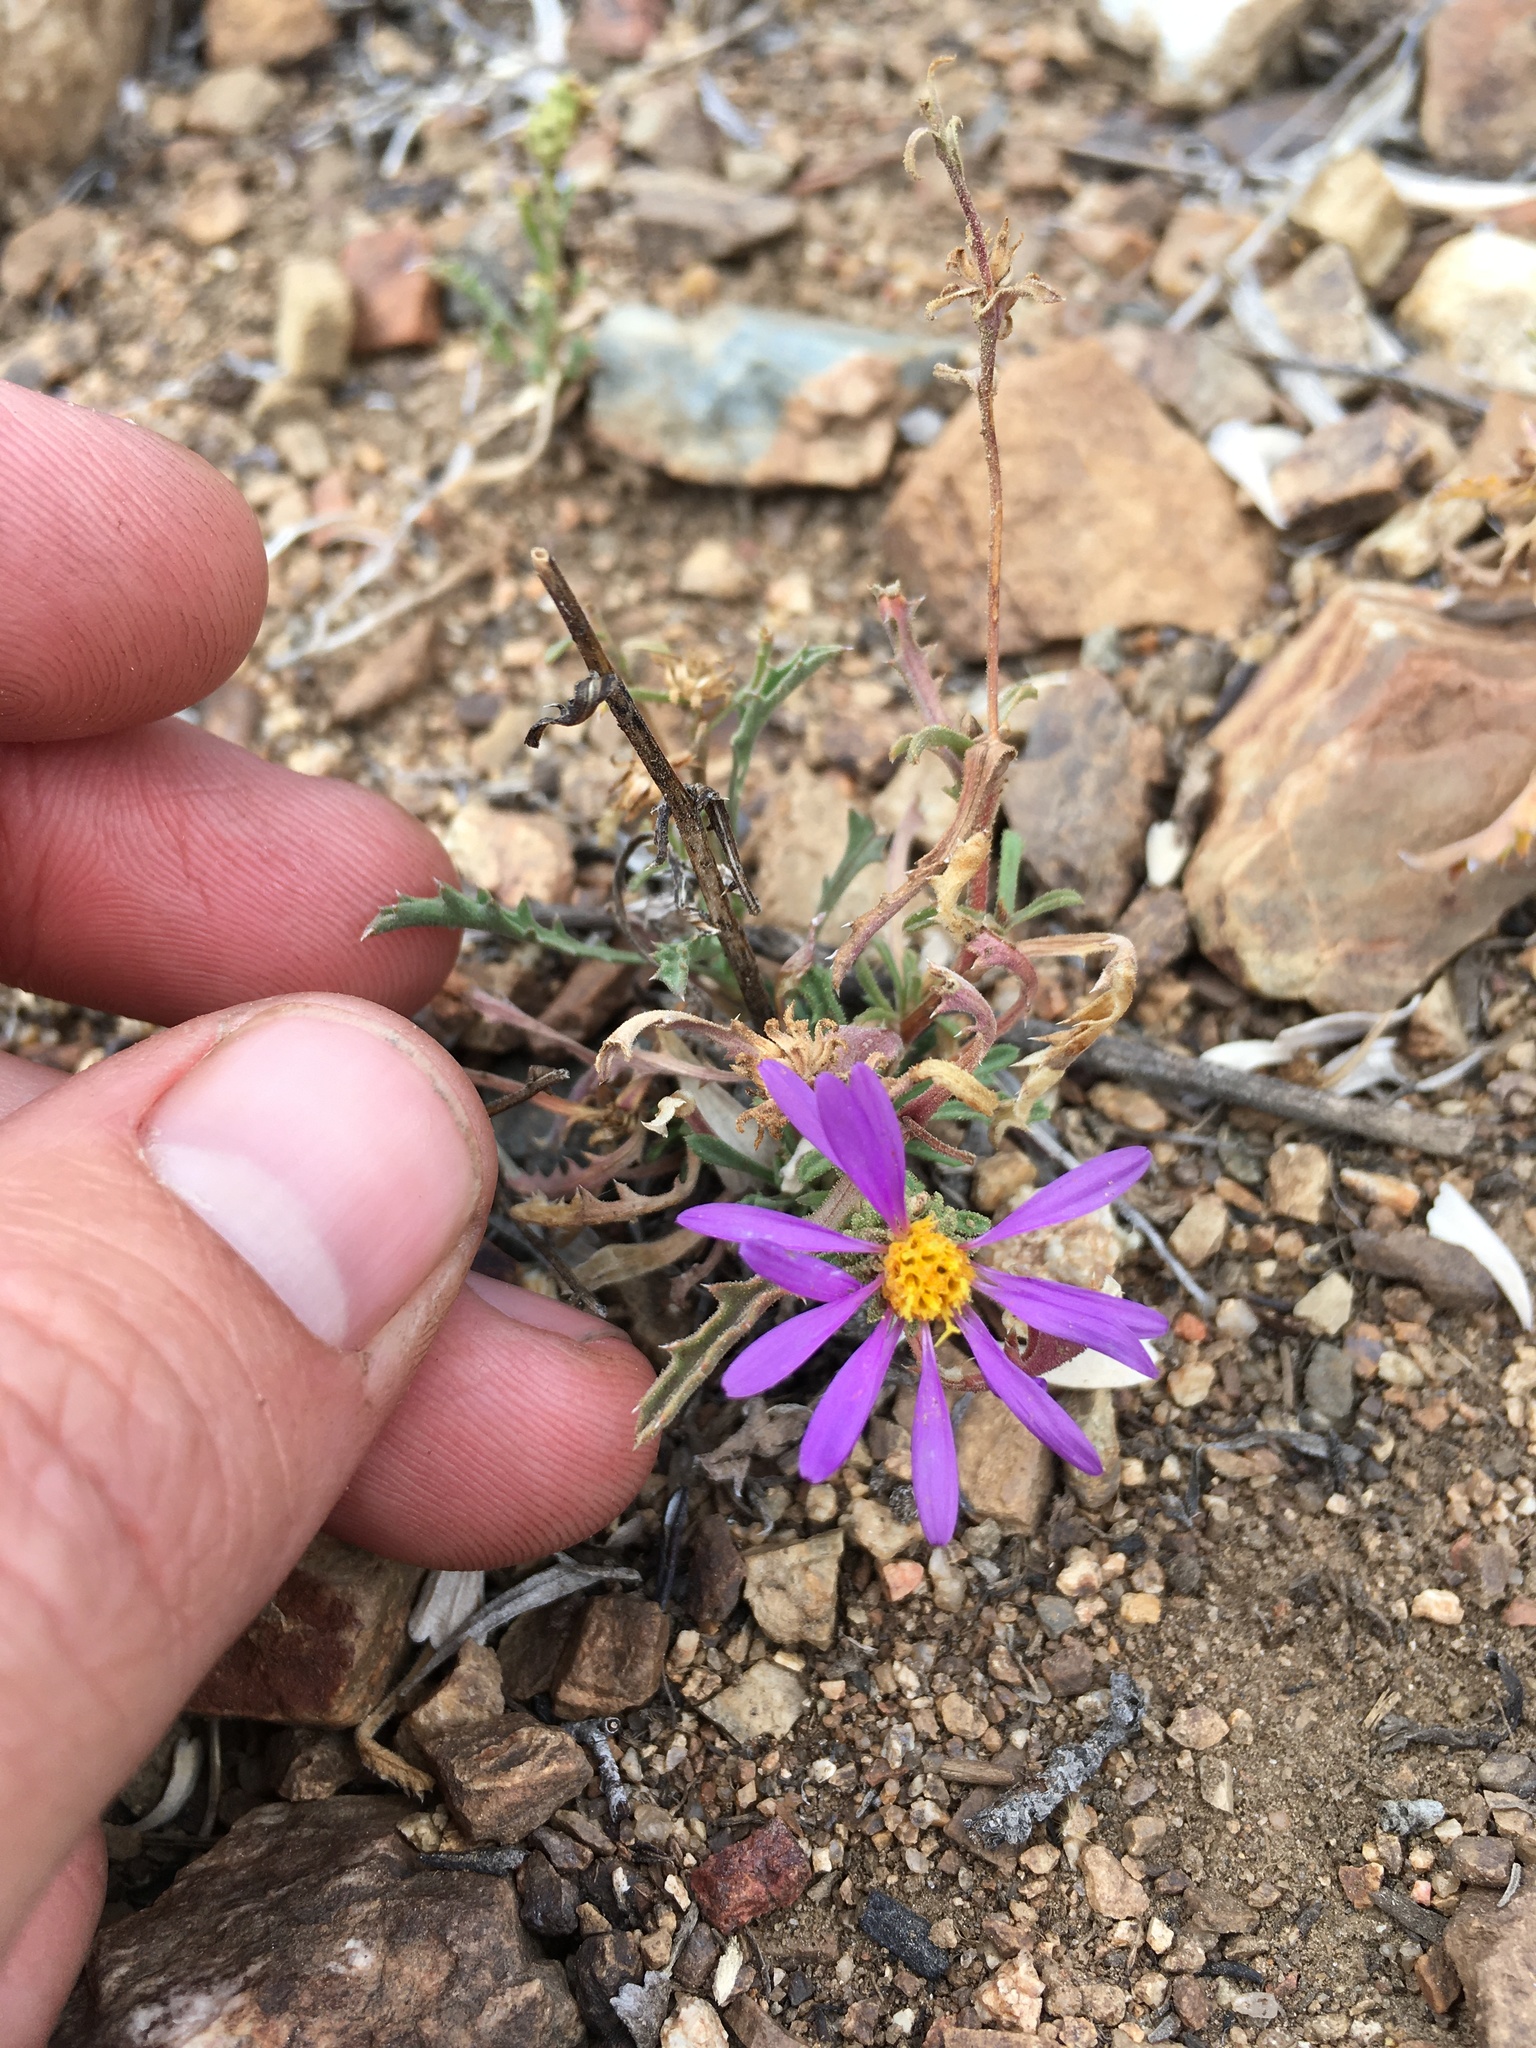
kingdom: Plantae
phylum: Tracheophyta
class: Magnoliopsida
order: Asterales
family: Asteraceae
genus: Dieteria
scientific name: Dieteria canescens
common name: Hoary-aster
